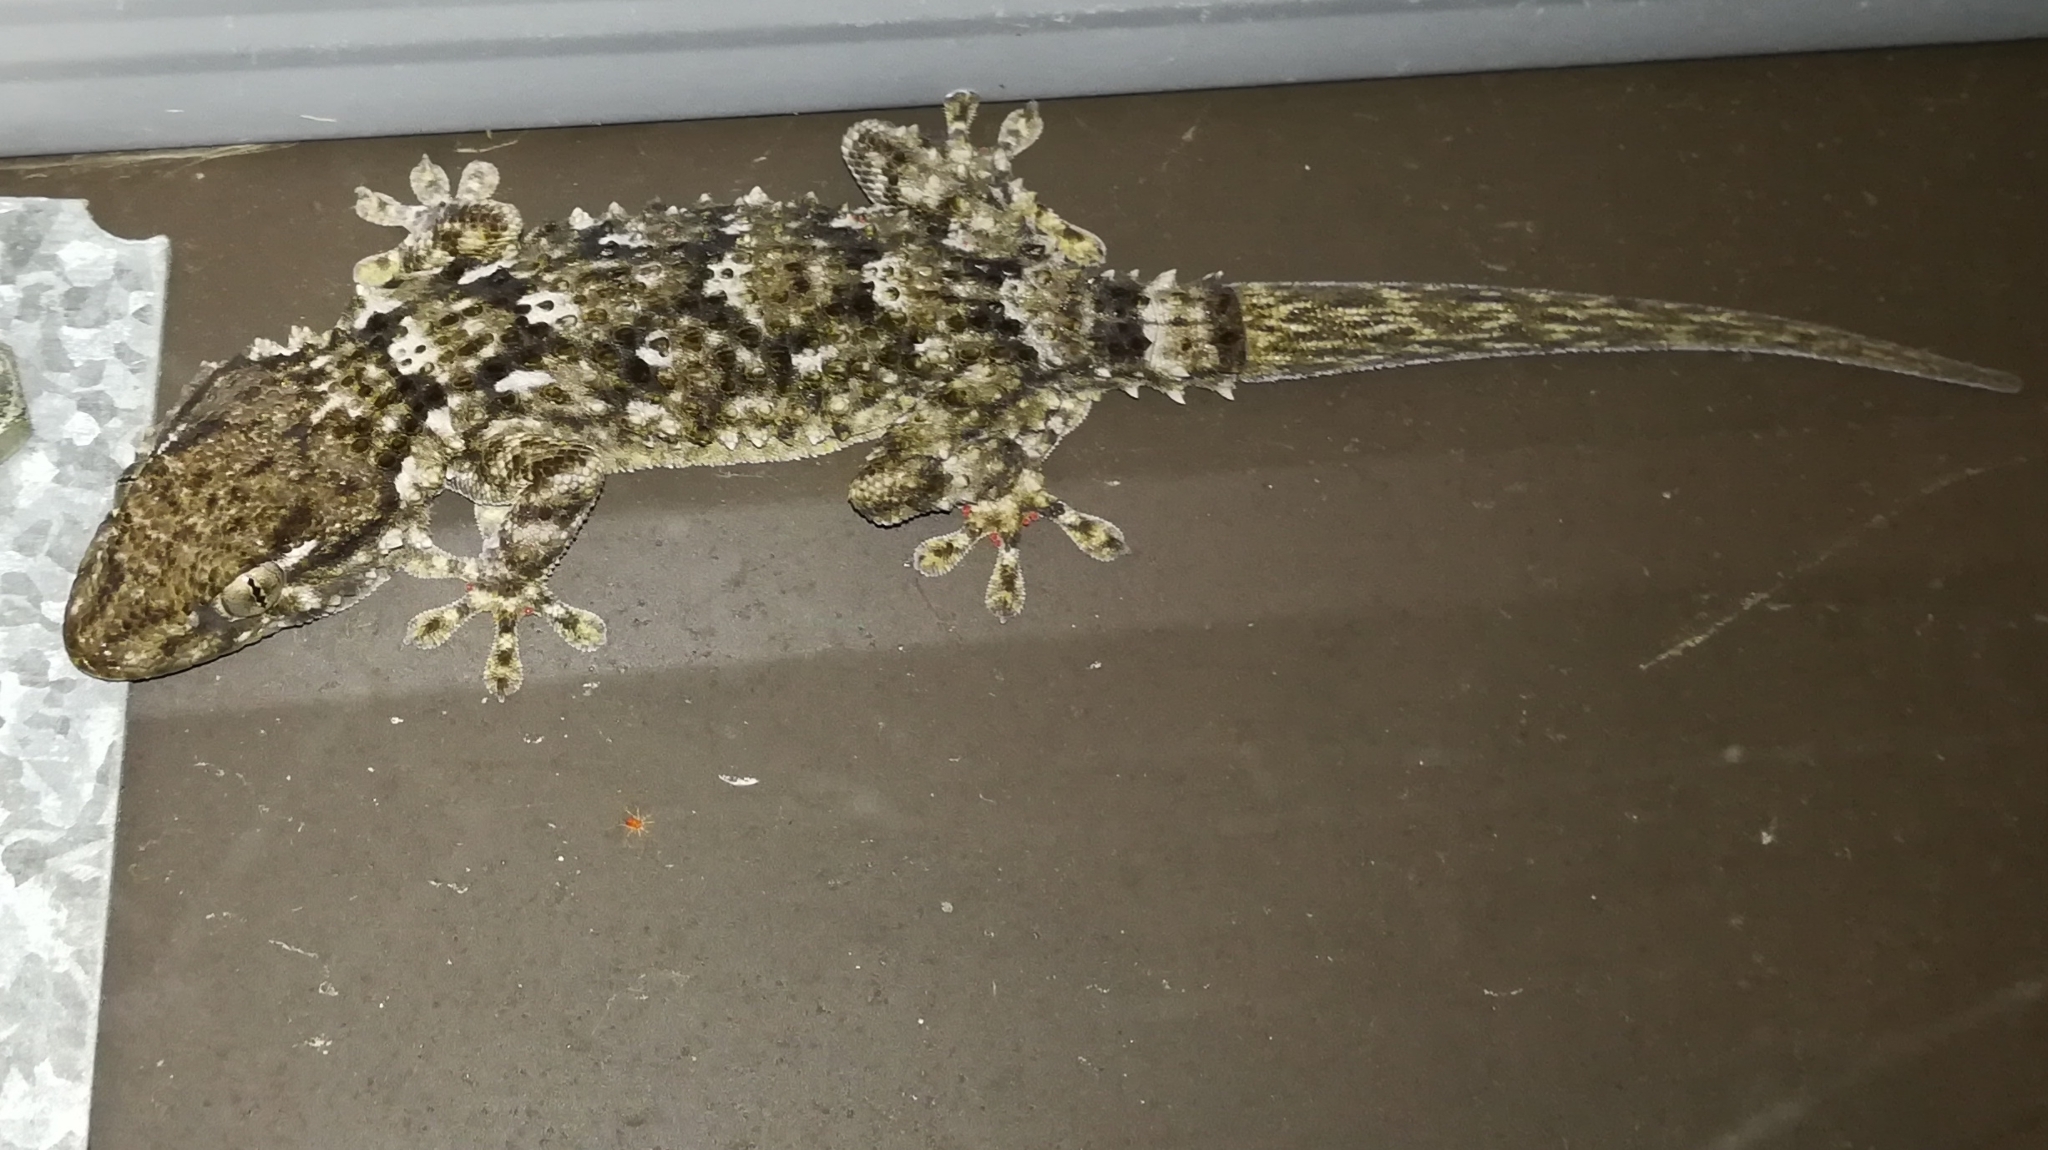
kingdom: Animalia
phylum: Chordata
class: Squamata
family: Phyllodactylidae
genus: Tarentola
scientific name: Tarentola mauritanica
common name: Moorish gecko
